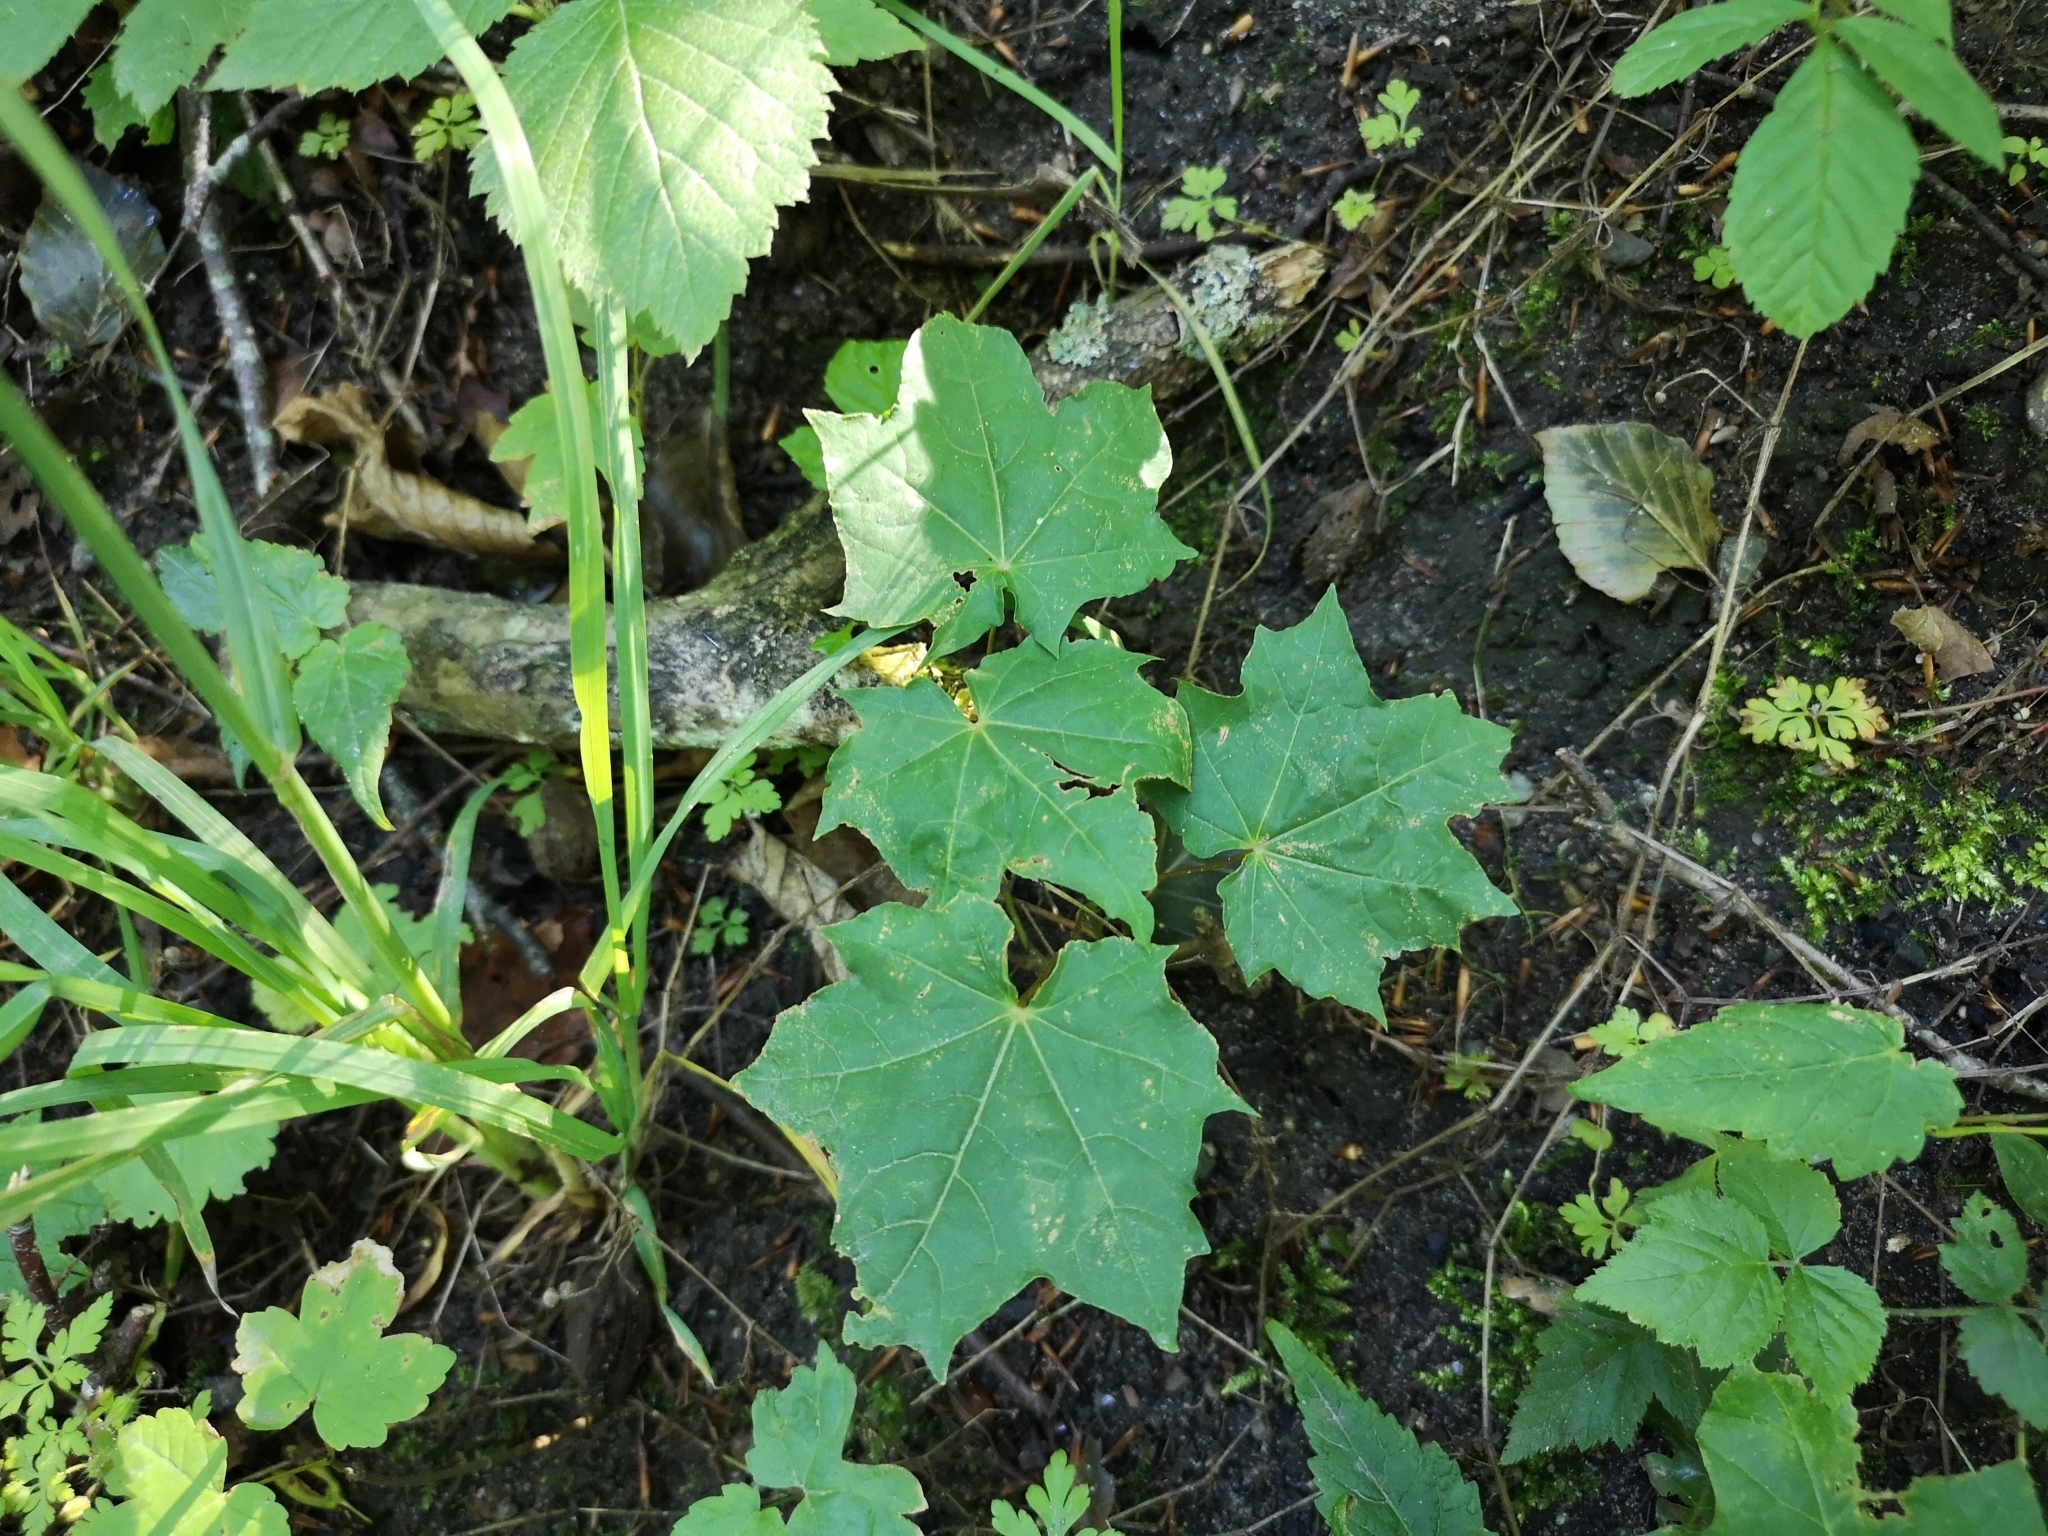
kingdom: Plantae
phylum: Tracheophyta
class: Magnoliopsida
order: Sapindales
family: Sapindaceae
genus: Acer
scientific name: Acer platanoides
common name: Norway maple
